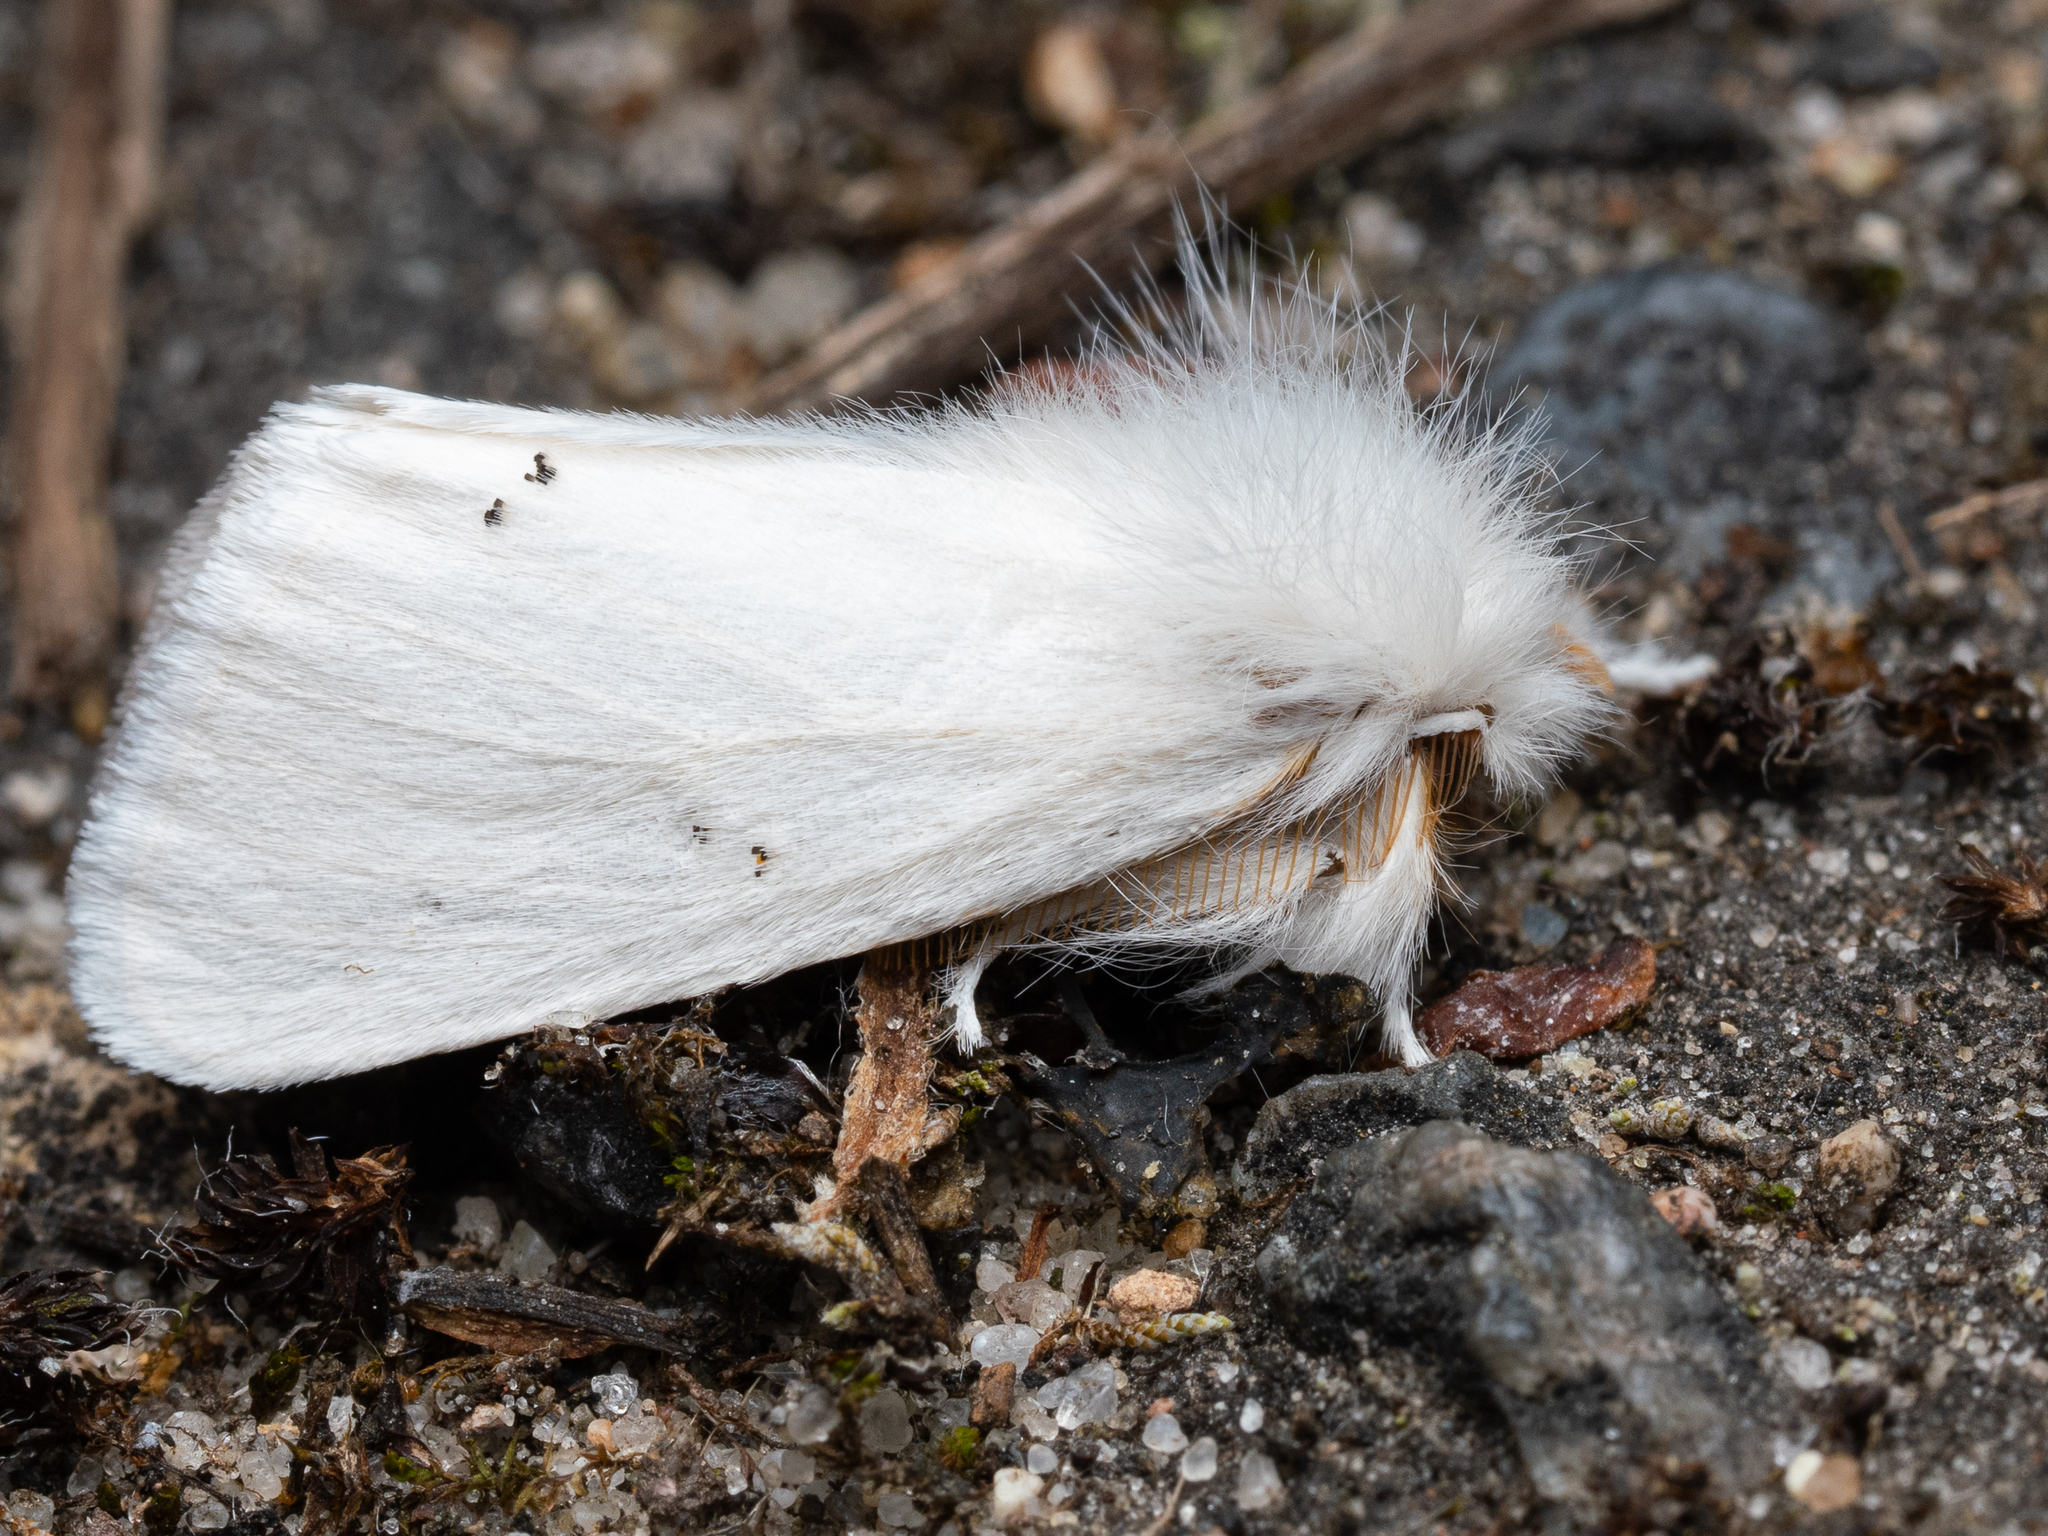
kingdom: Animalia
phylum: Arthropoda
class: Insecta
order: Lepidoptera
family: Erebidae
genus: Euproctis
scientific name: Euproctis chrysorrhoea
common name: Brown-tail
